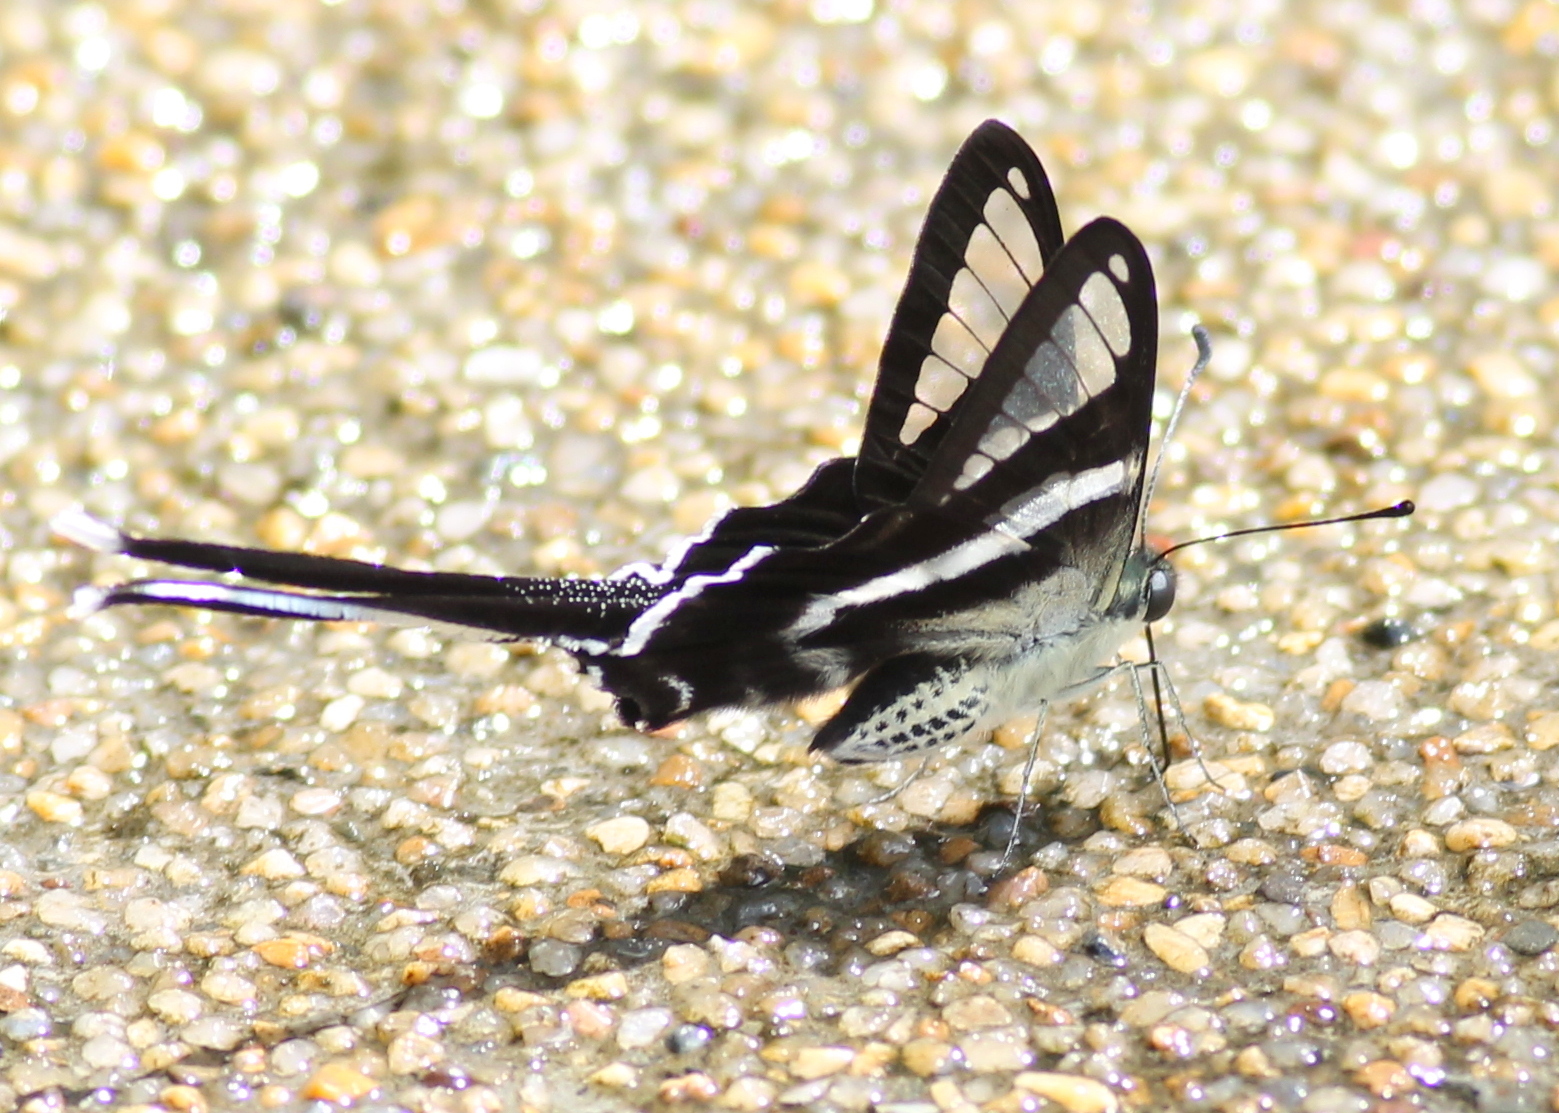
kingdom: Animalia
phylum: Arthropoda
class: Insecta
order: Lepidoptera
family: Papilionidae
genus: Lamproptera
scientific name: Lamproptera curius
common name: White dragontail
